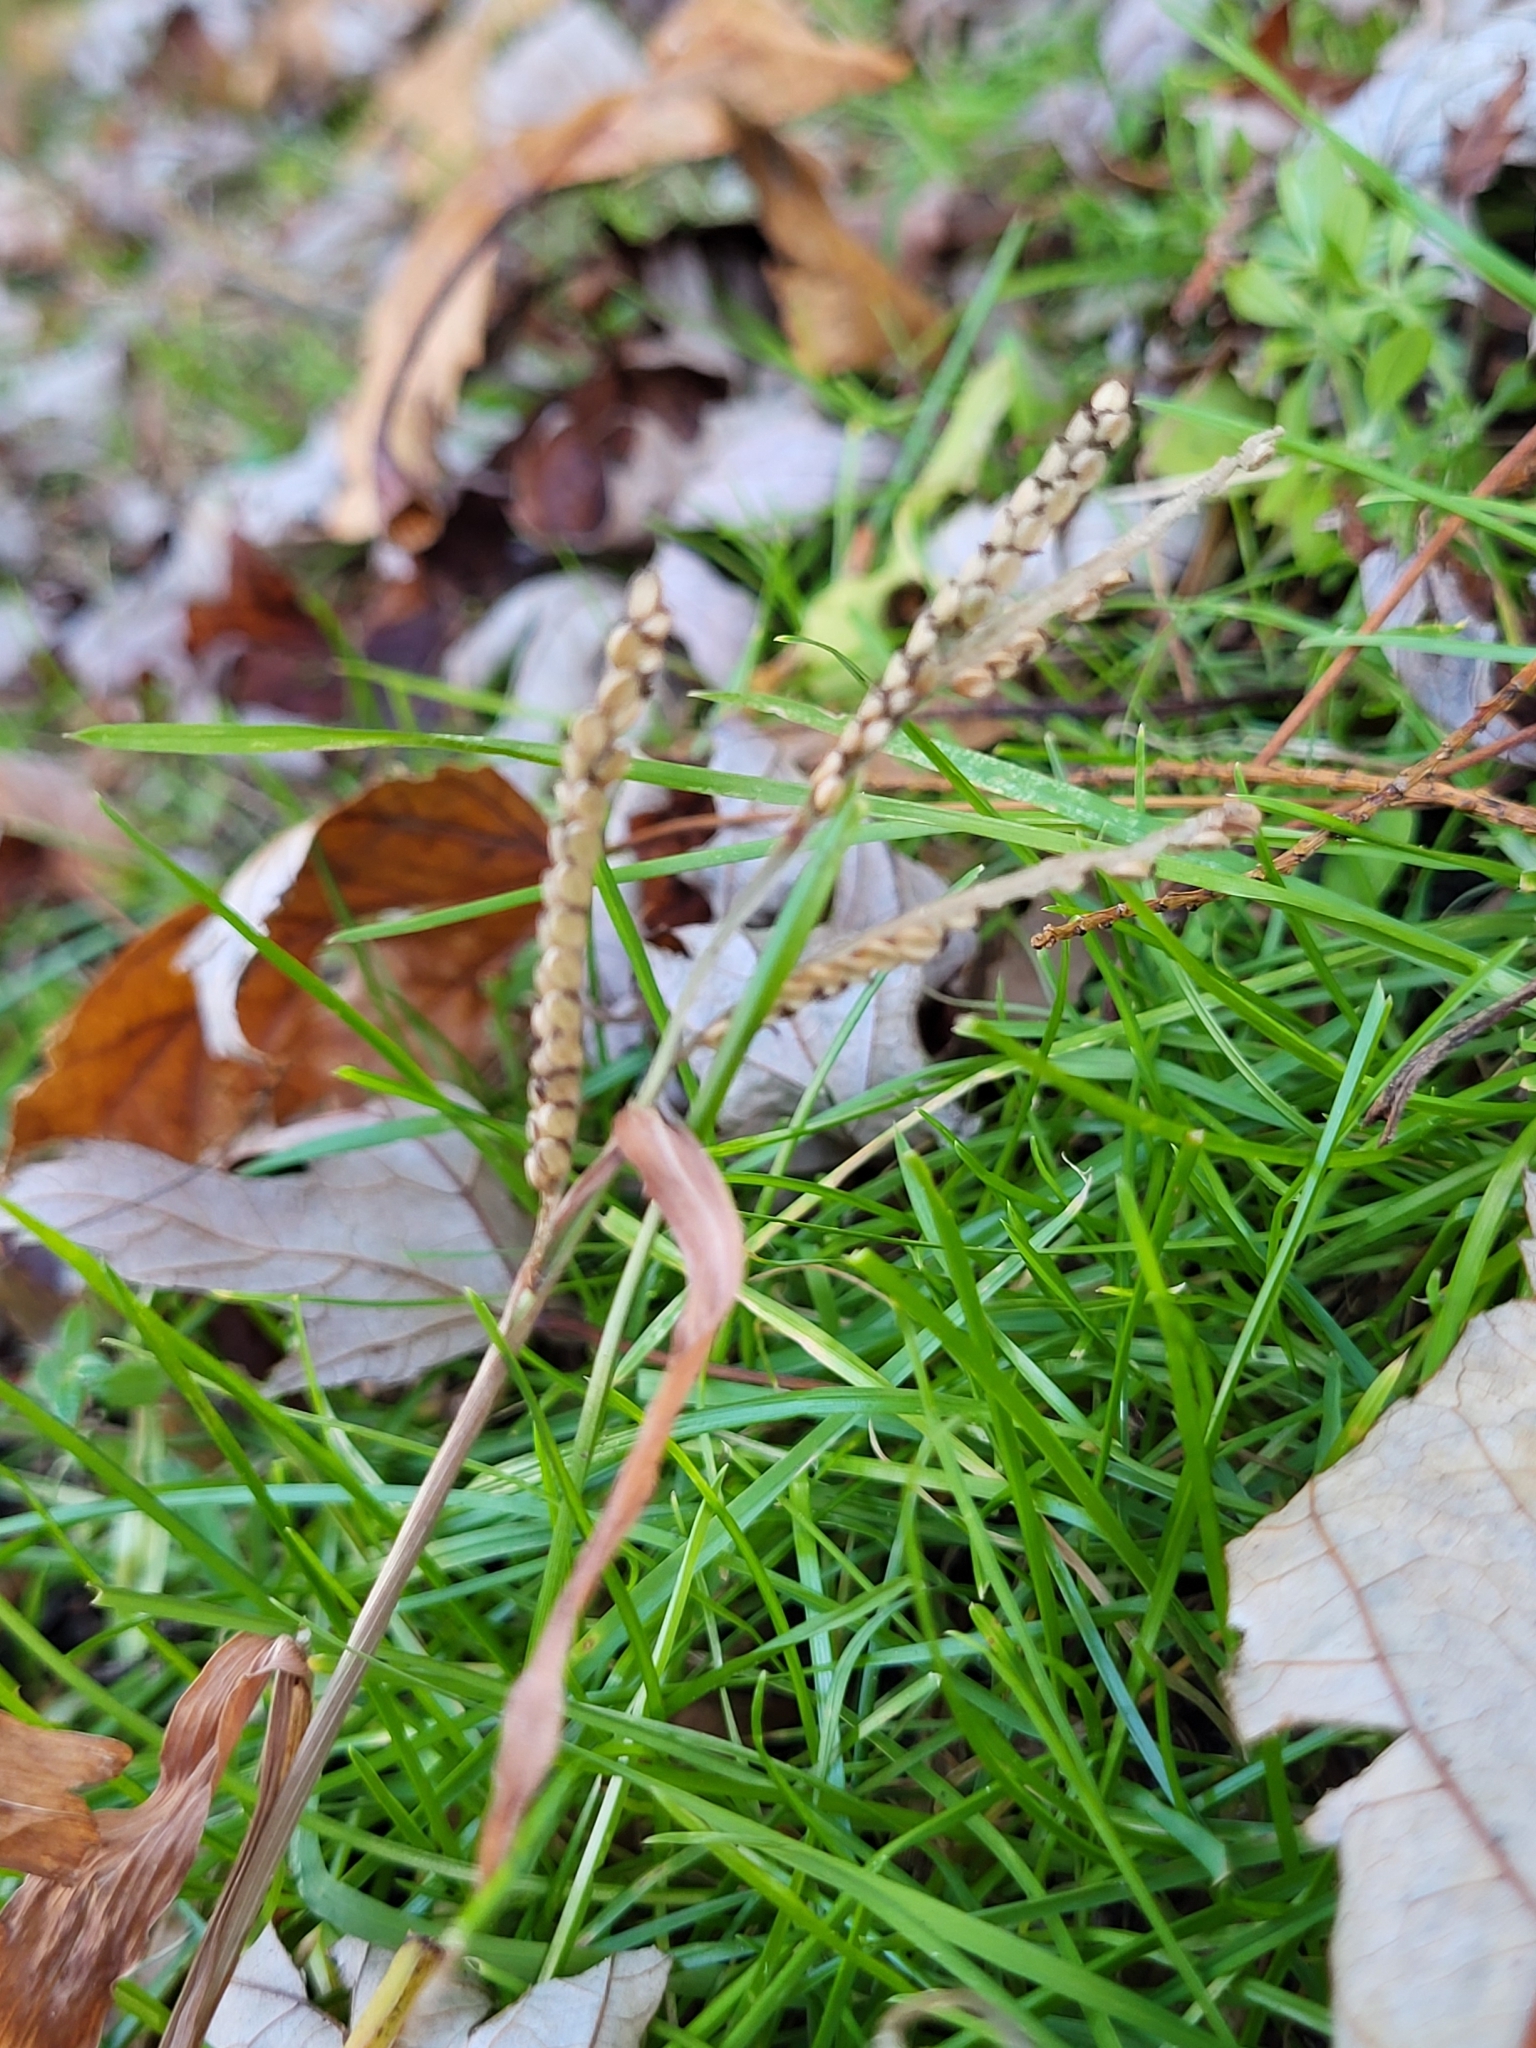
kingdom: Plantae
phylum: Tracheophyta
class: Liliopsida
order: Poales
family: Poaceae
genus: Paspalum
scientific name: Paspalum laeve
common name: Field paspalum
